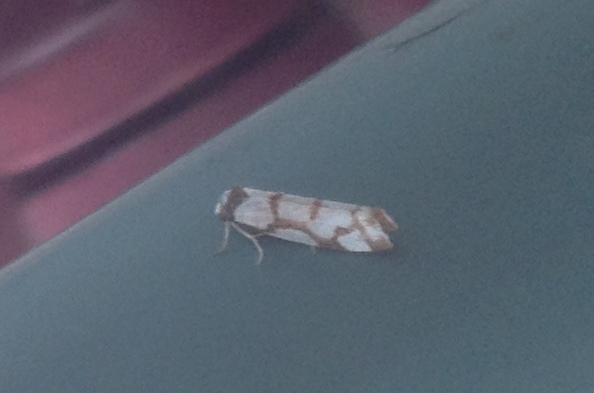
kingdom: Animalia
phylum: Arthropoda
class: Insecta
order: Lepidoptera
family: Erebidae
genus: Scaptesyle
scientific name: Scaptesyle dichotoma
